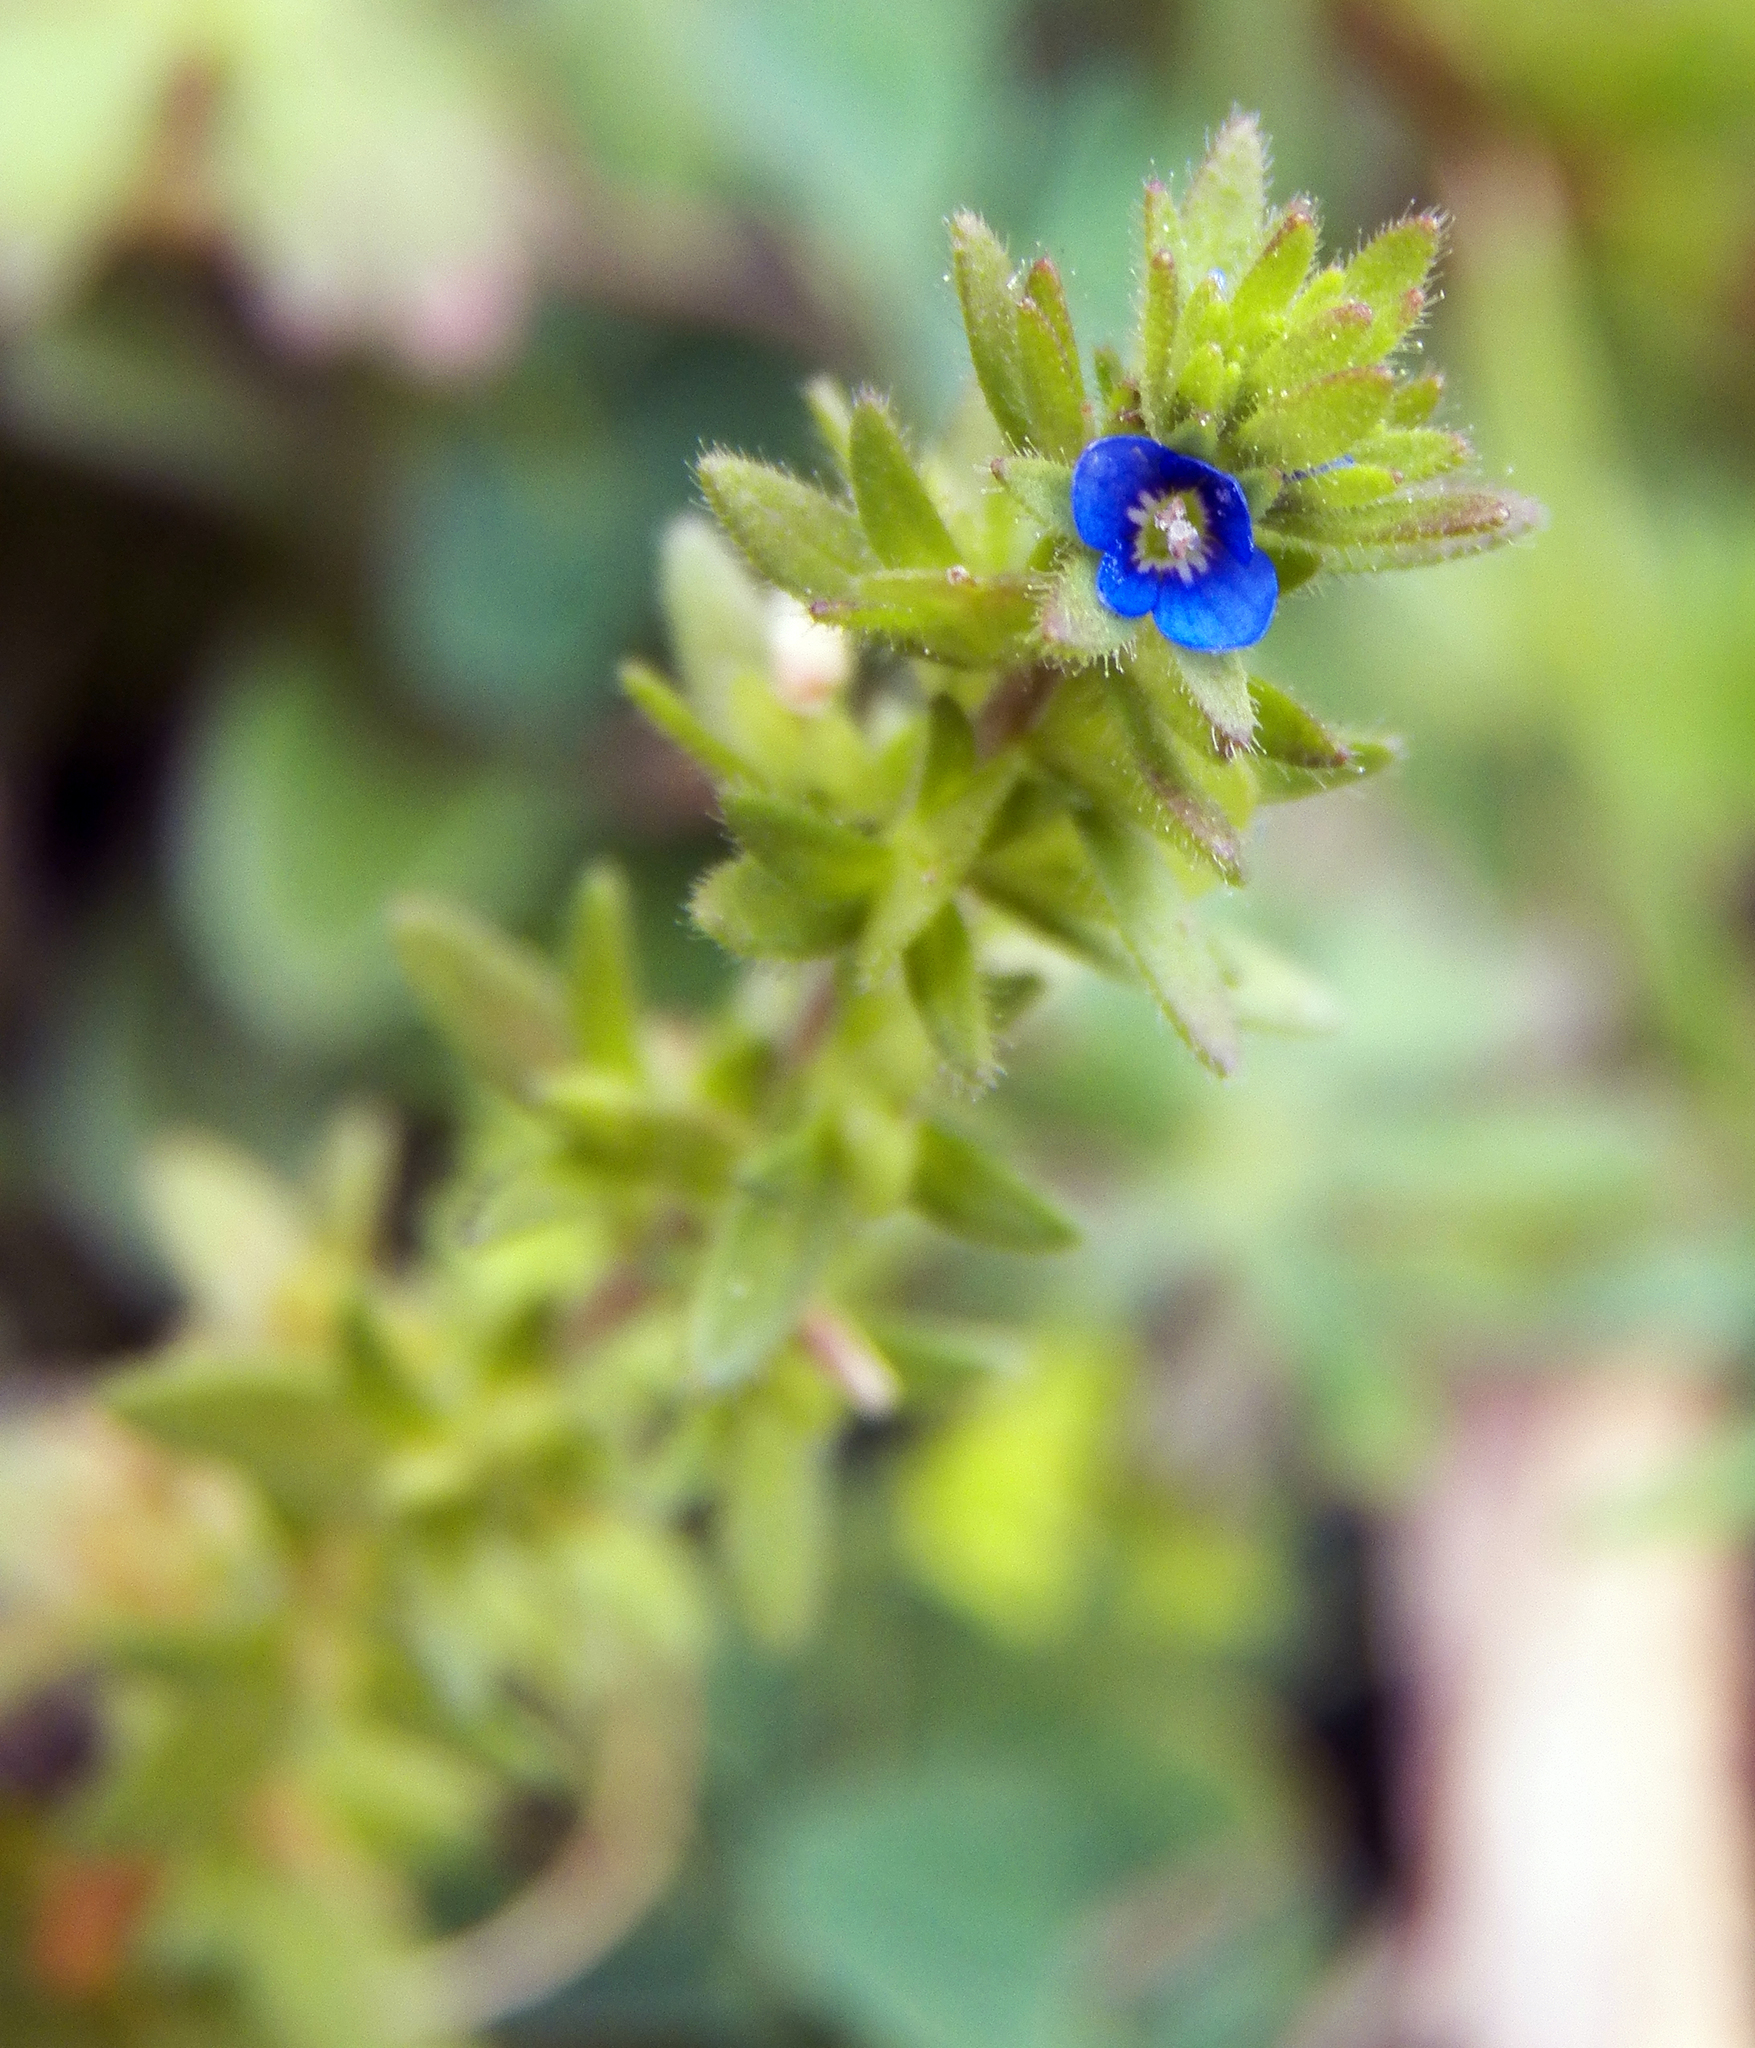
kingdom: Plantae
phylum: Tracheophyta
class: Magnoliopsida
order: Lamiales
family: Plantaginaceae
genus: Veronica
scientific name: Veronica arvensis
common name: Corn speedwell
